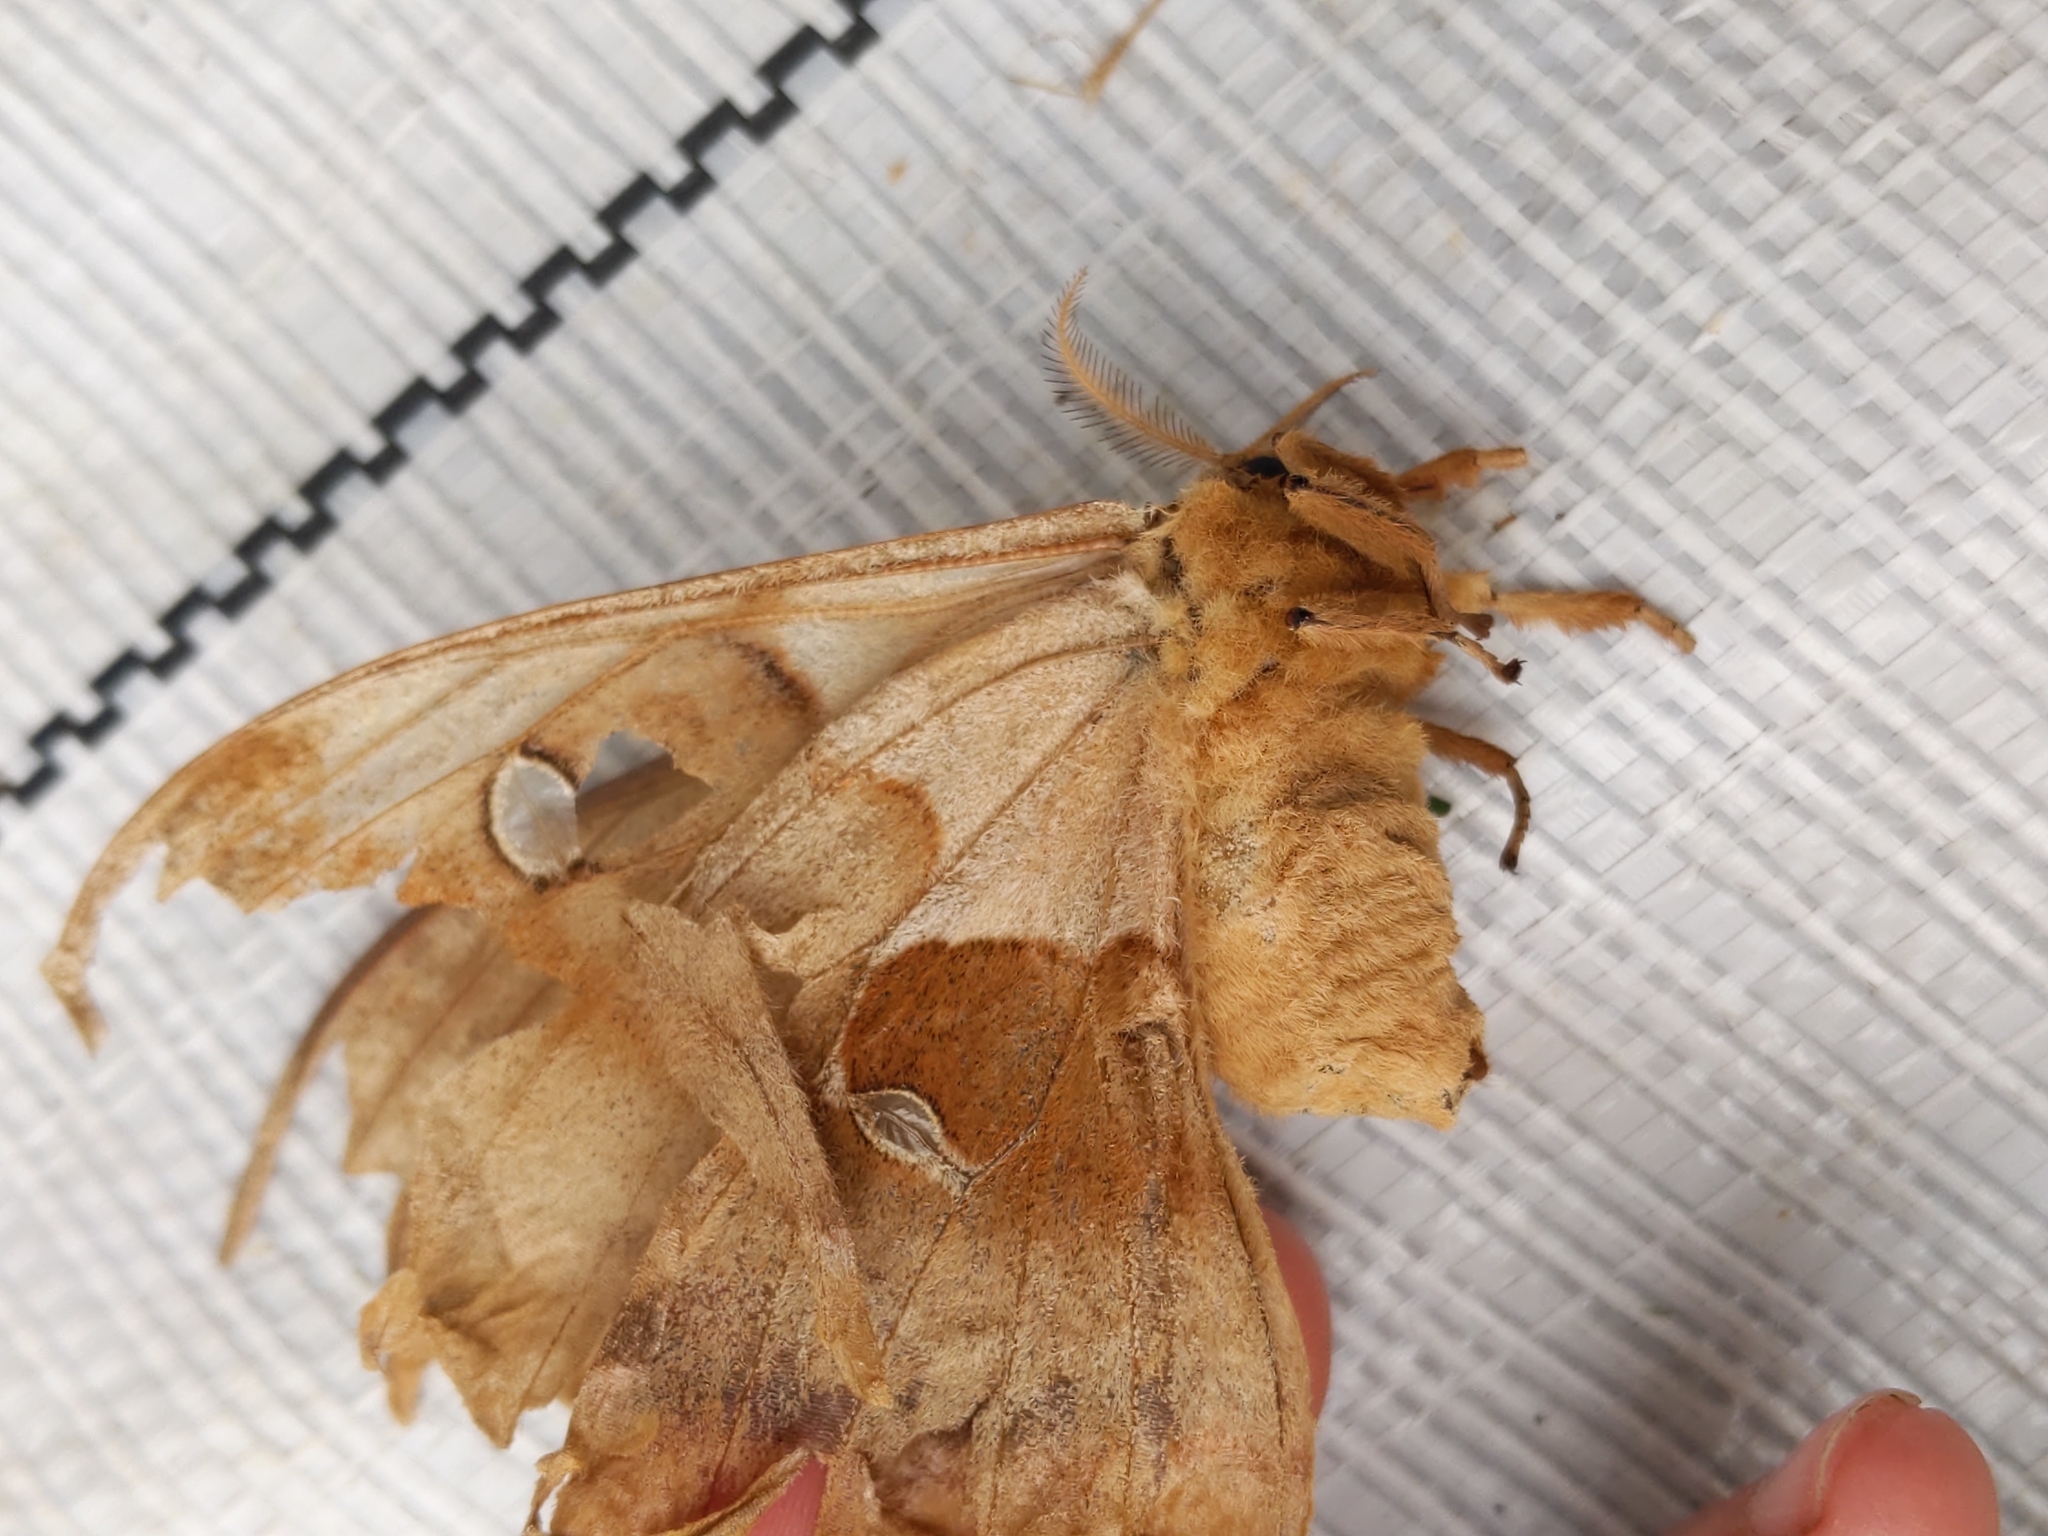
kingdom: Animalia
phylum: Arthropoda
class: Insecta
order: Lepidoptera
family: Saturniidae
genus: Antheraea
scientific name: Antheraea polyphemus
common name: Polyphemus moth
